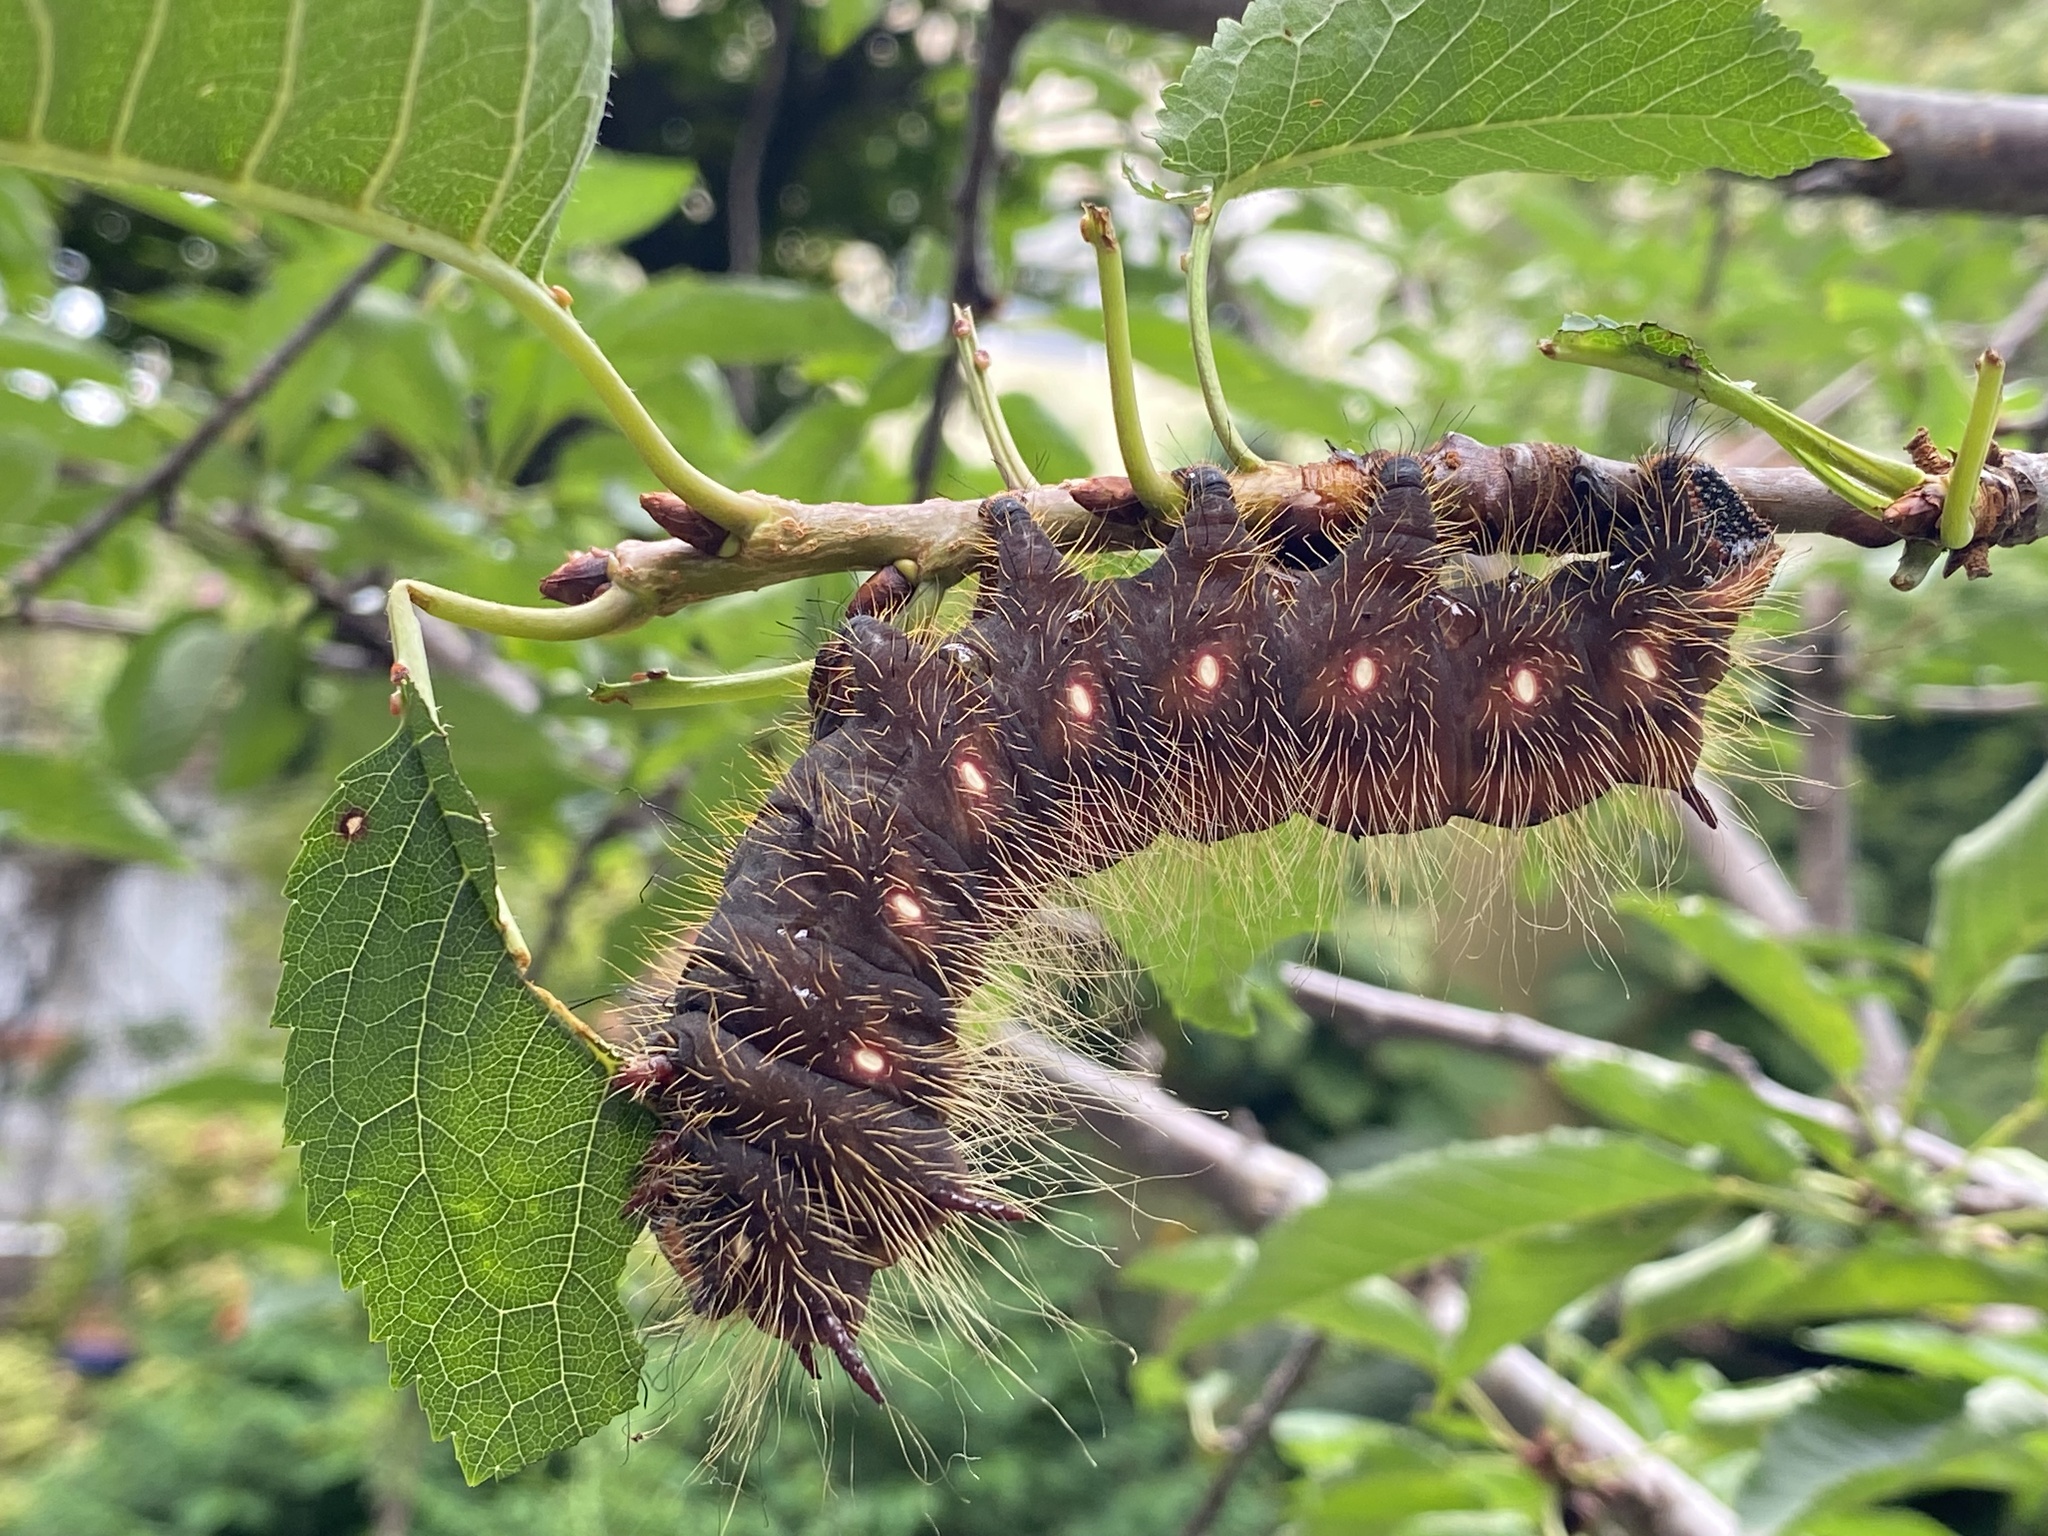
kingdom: Animalia
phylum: Arthropoda
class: Insecta
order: Lepidoptera
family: Saturniidae
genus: Eacles
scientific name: Eacles imperialis
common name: Imperial moth
